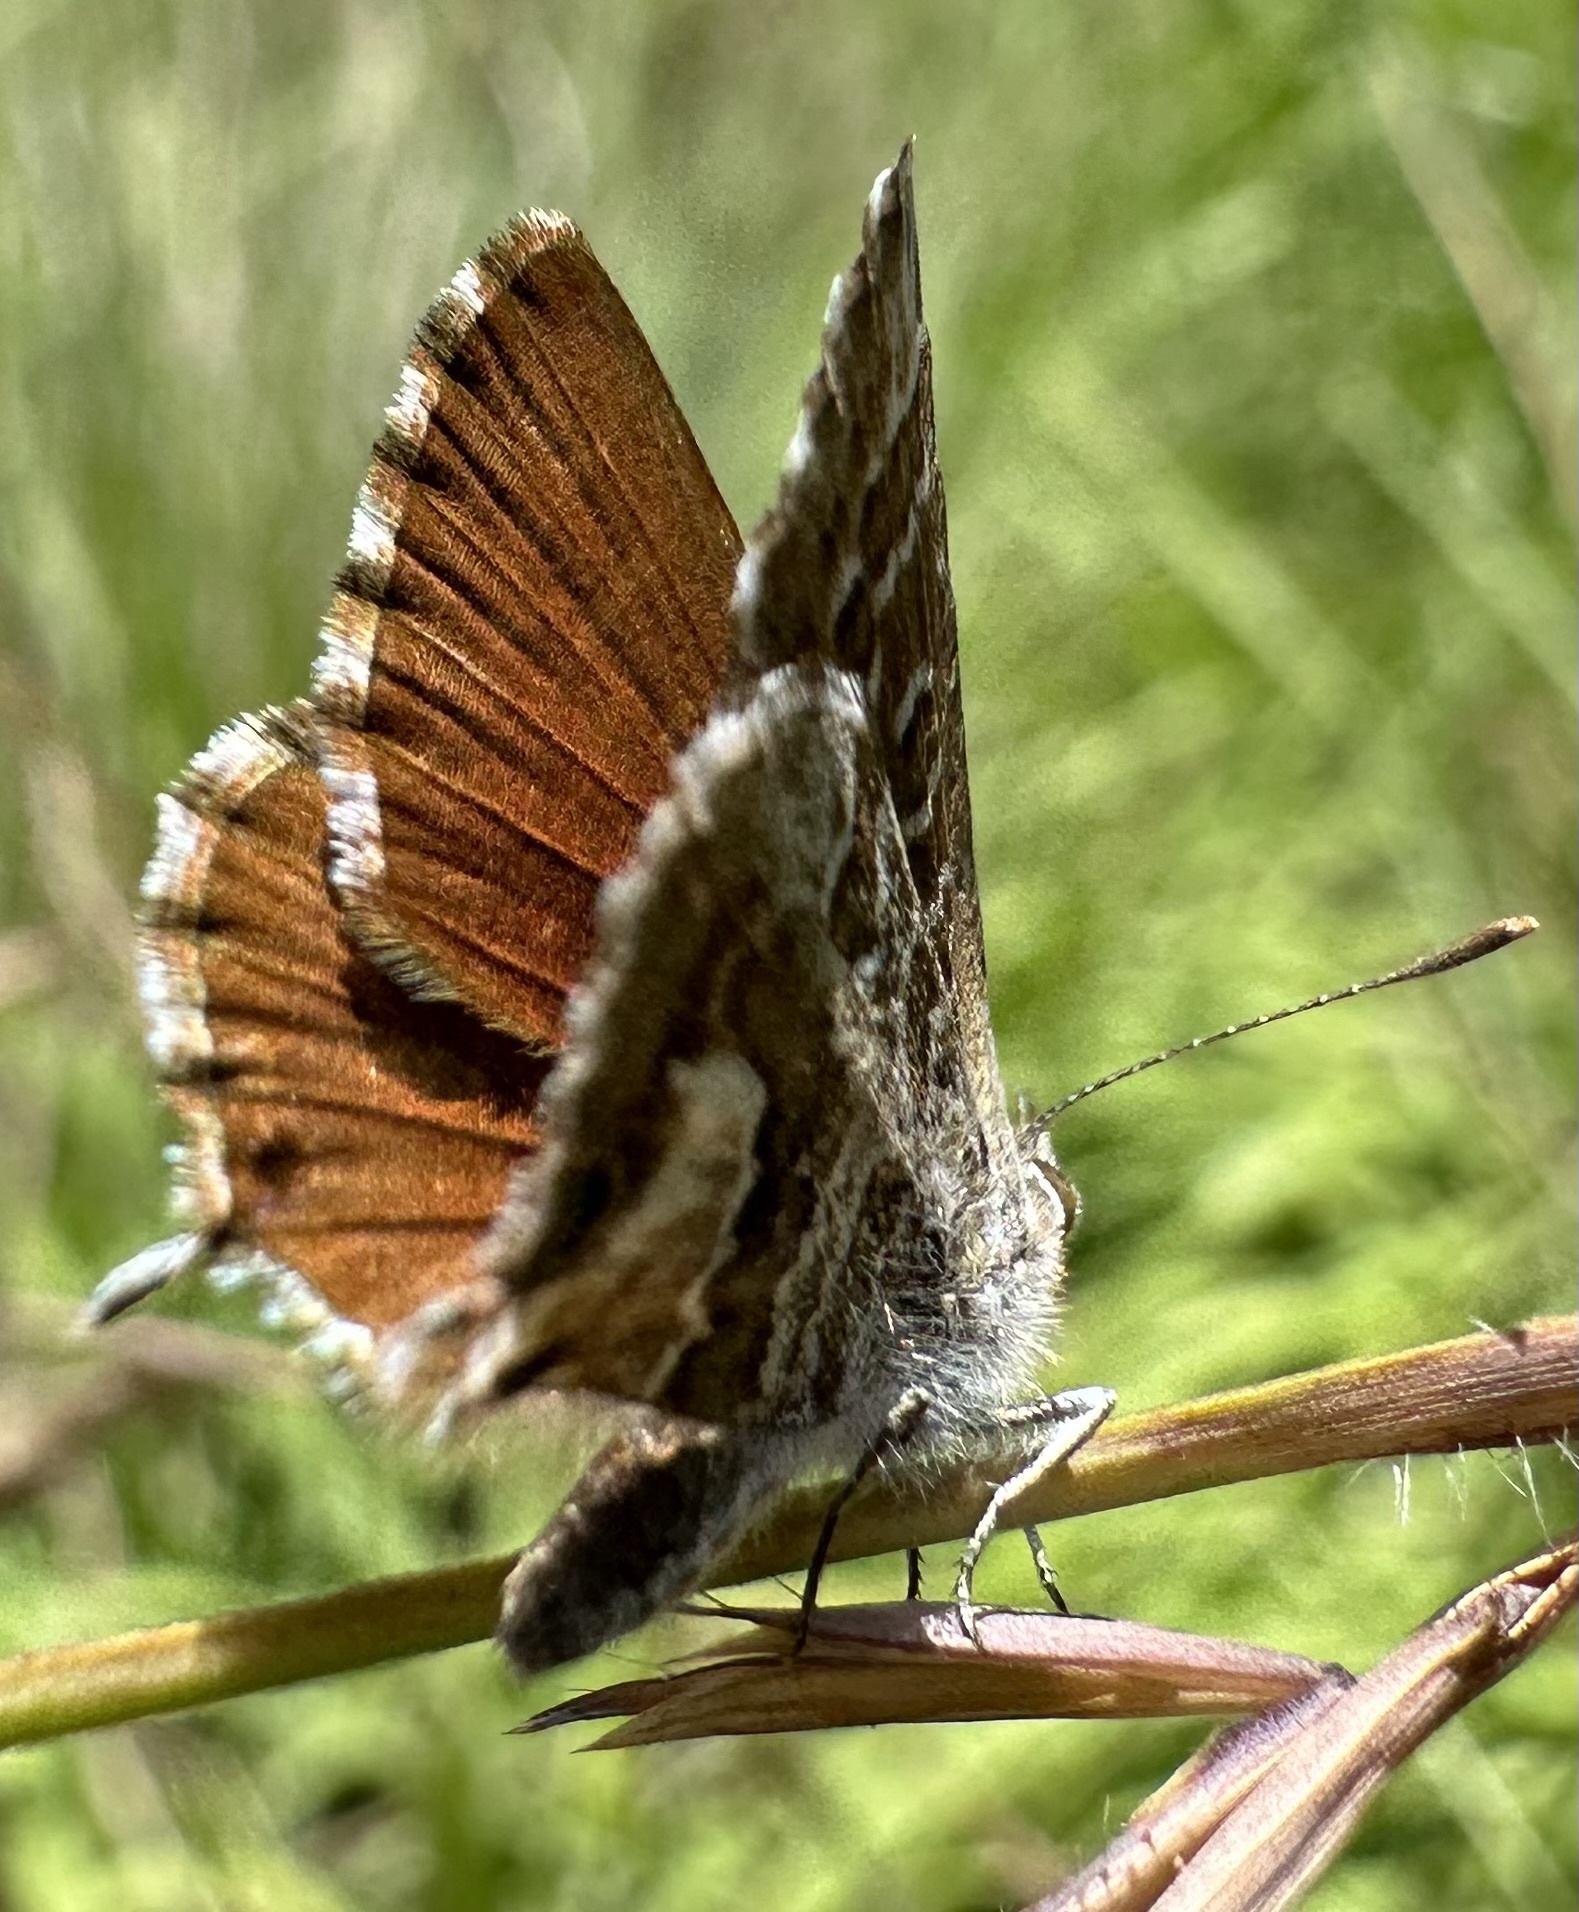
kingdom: Animalia
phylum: Arthropoda
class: Insecta
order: Lepidoptera
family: Lycaenidae
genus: Cacyreus
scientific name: Cacyreus fracta
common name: Water bronze
